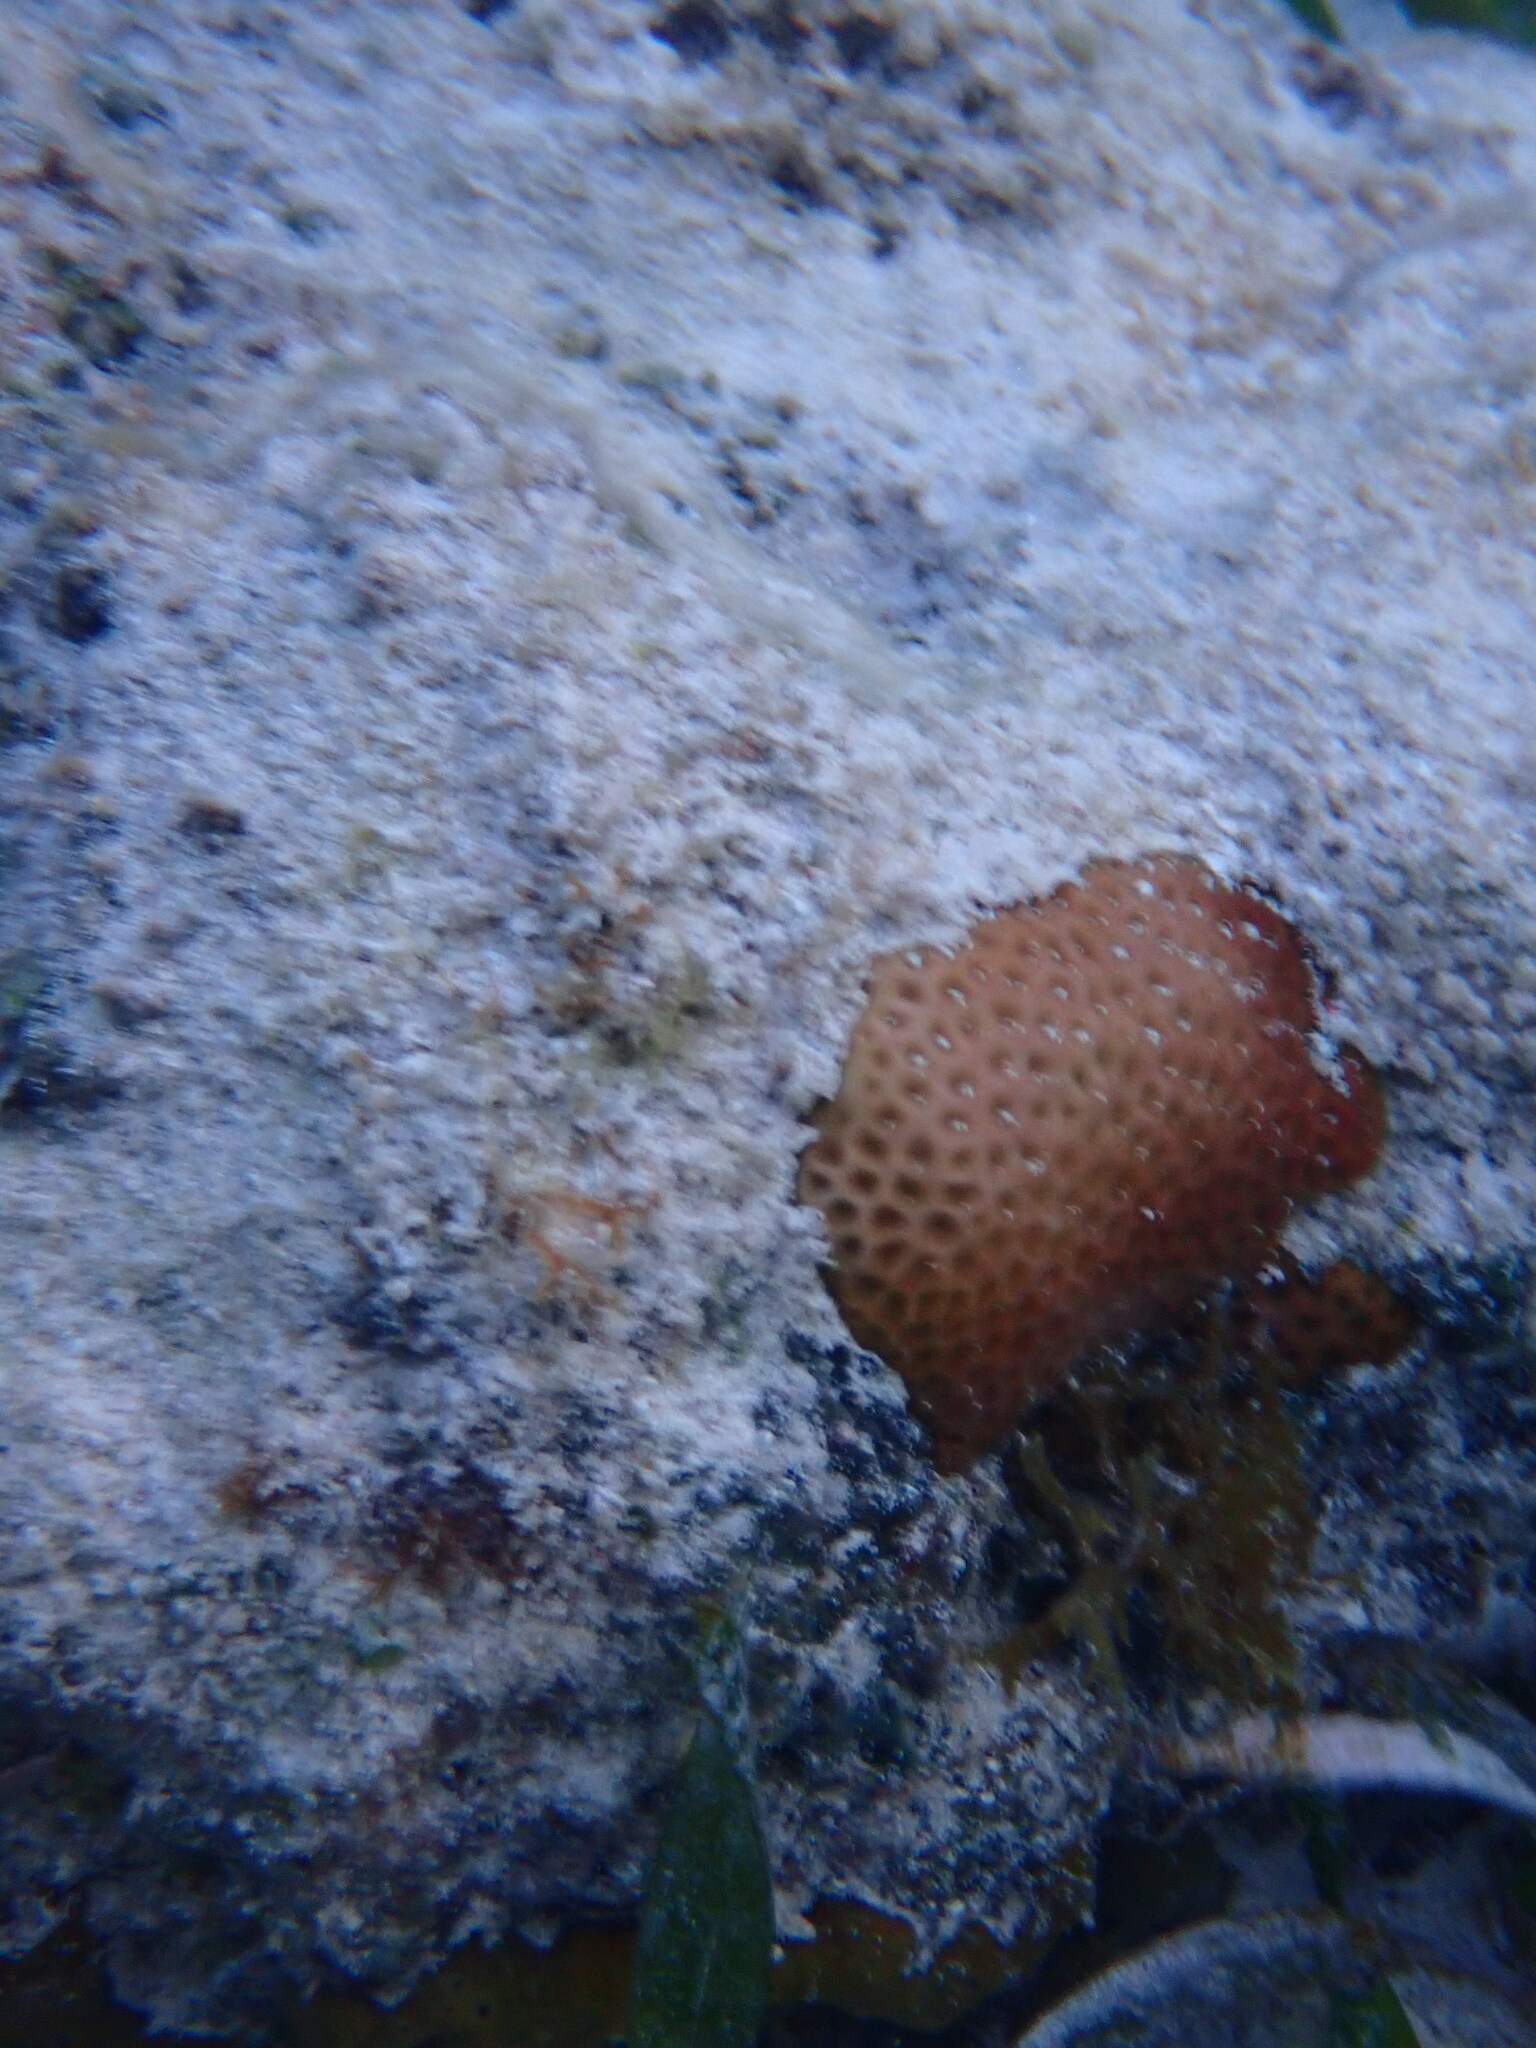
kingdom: Animalia
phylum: Cnidaria
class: Anthozoa
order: Scleractinia
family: Rhizangiidae
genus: Siderastrea
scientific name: Siderastrea radians
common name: Lesser starlet coral
